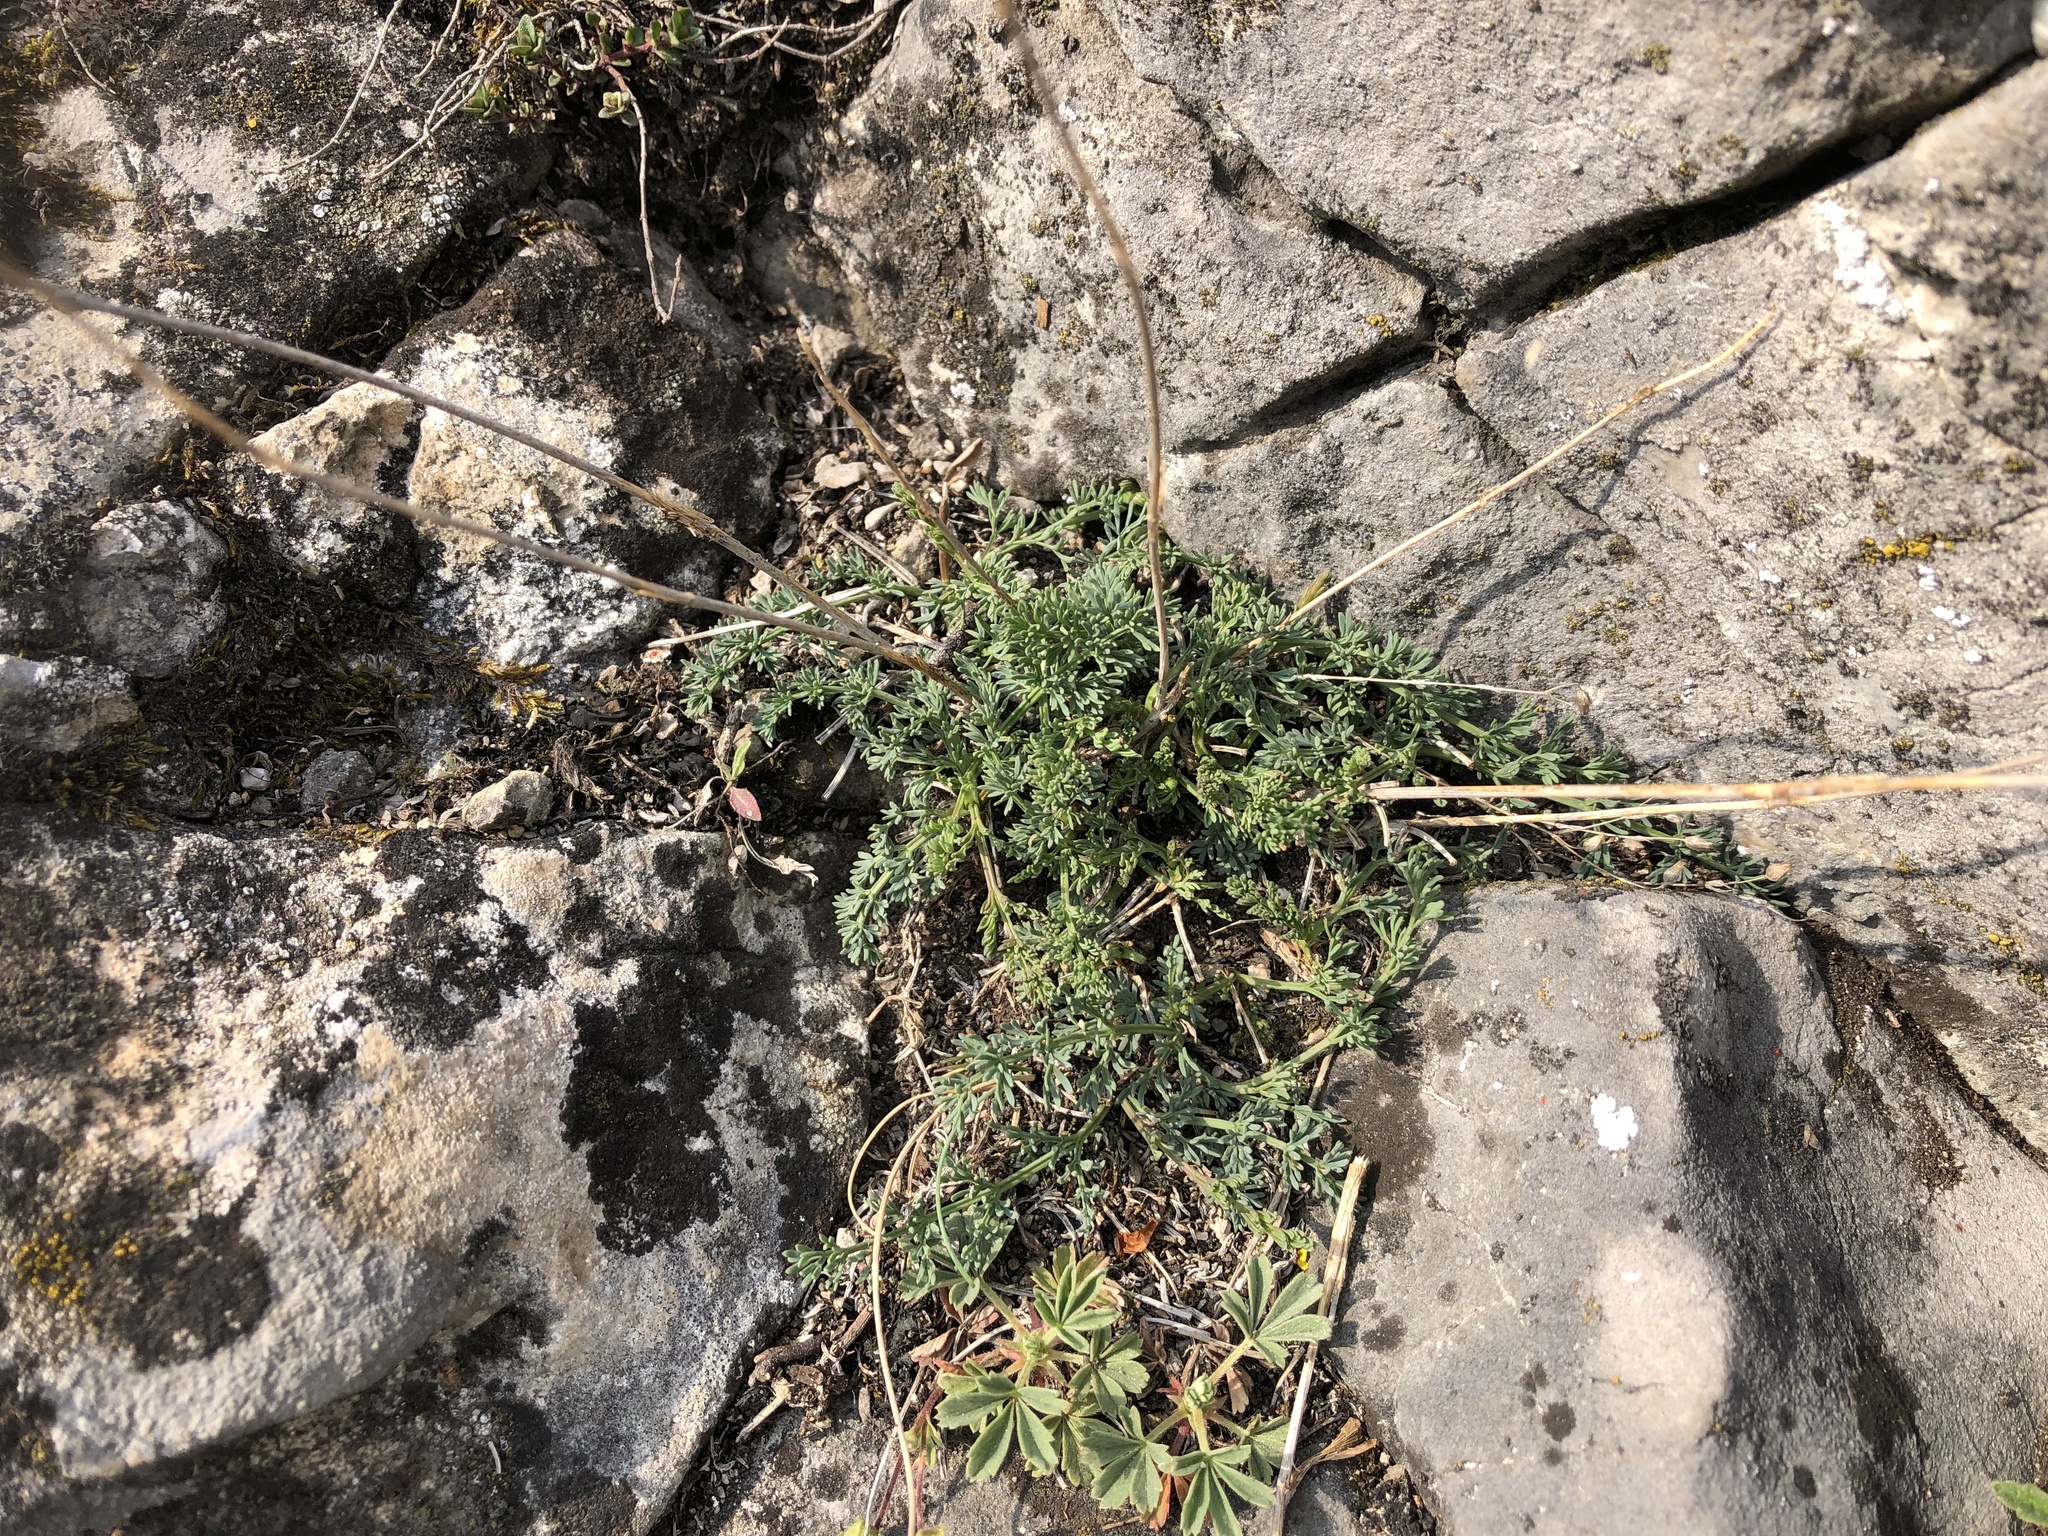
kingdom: Plantae
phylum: Tracheophyta
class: Magnoliopsida
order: Apiales
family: Apiaceae
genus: Hippomarathrum
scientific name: Hippomarathrum
